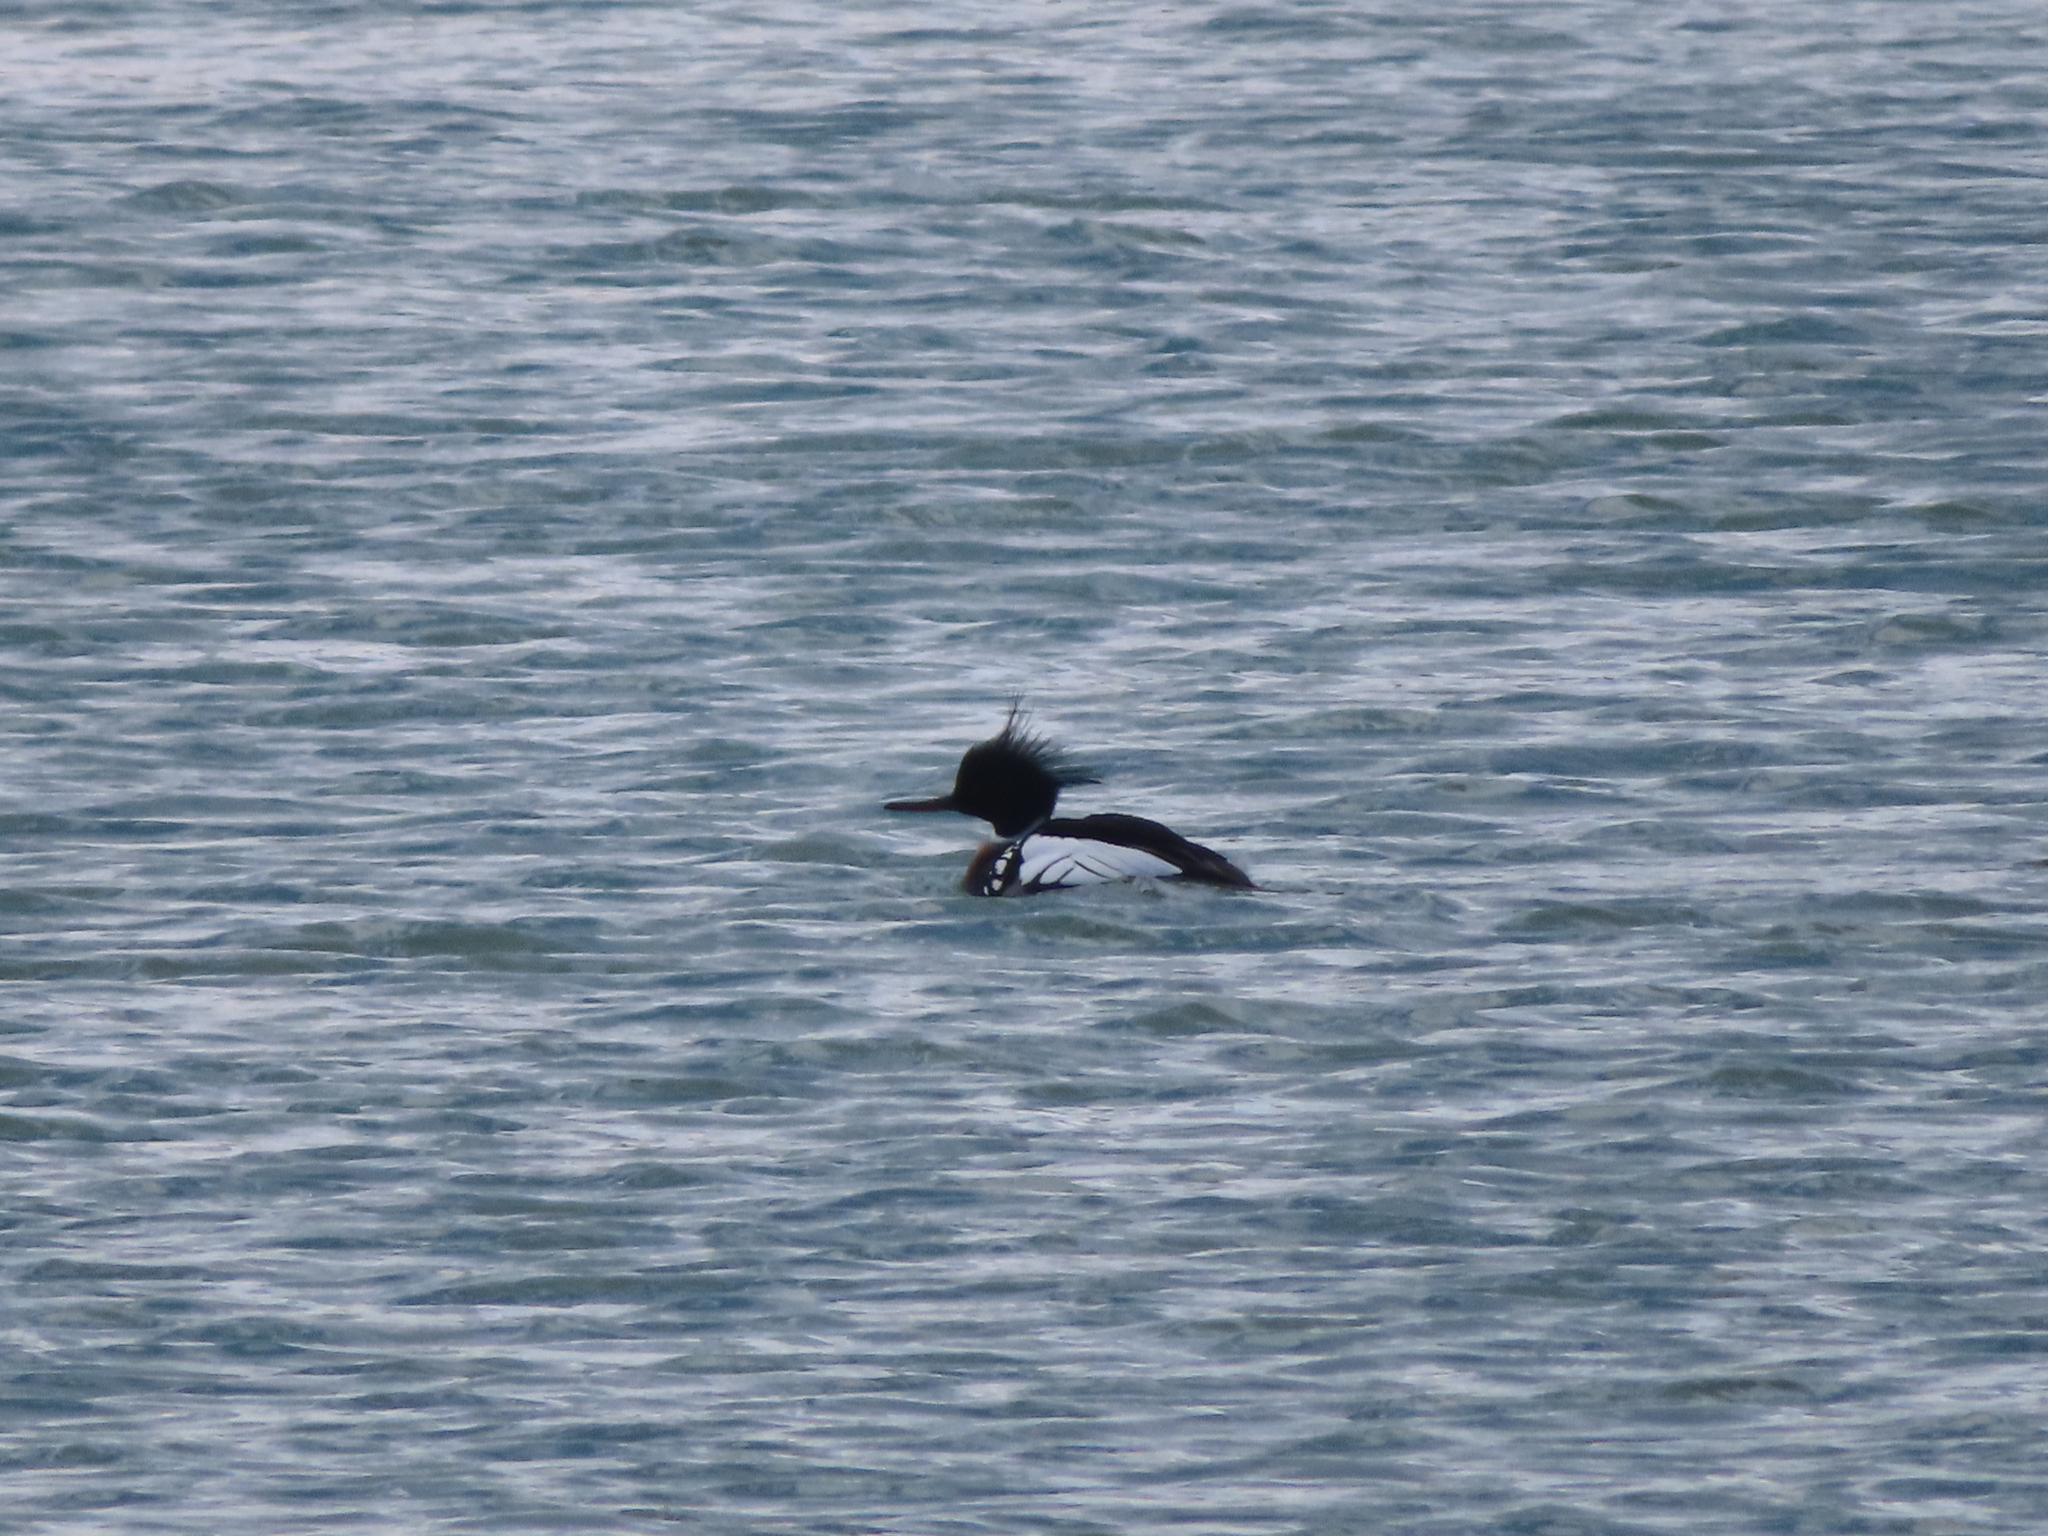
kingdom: Animalia
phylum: Chordata
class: Aves
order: Anseriformes
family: Anatidae
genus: Mergus
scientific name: Mergus serrator
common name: Red-breasted merganser
